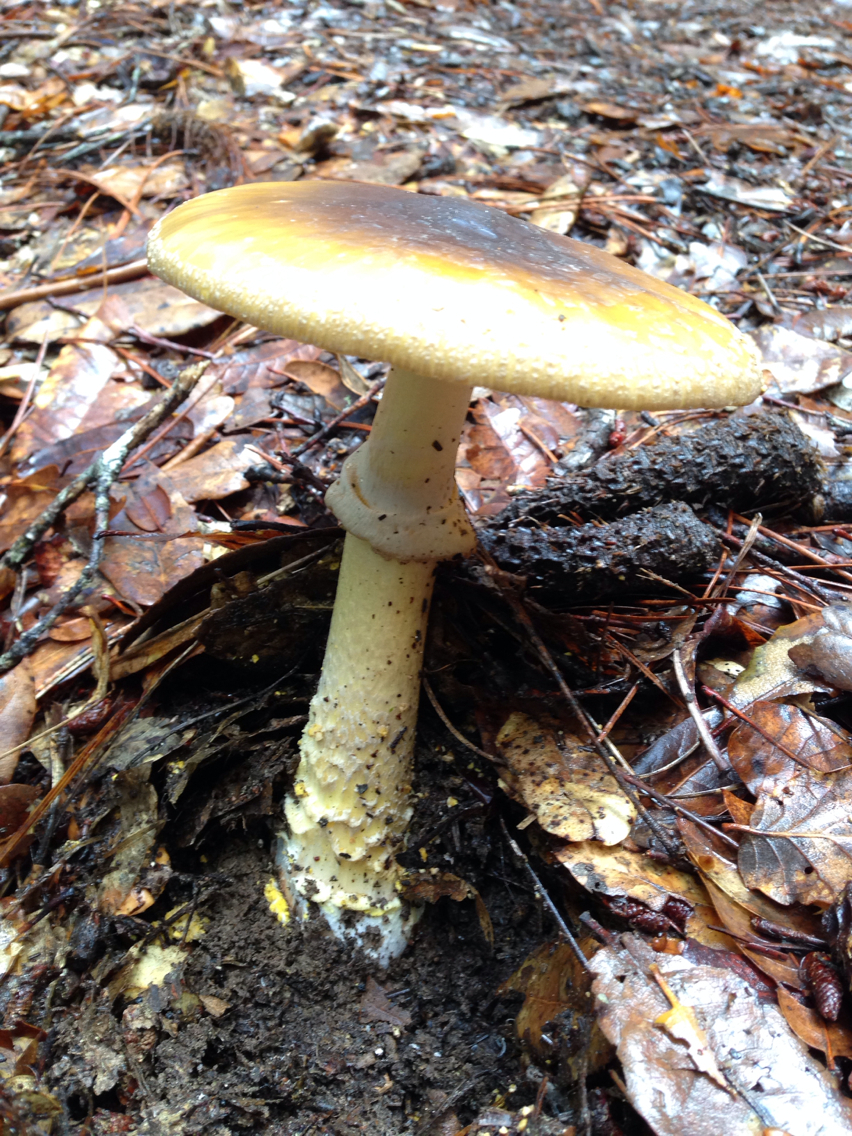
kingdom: Fungi
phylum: Basidiomycota
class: Agaricomycetes
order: Agaricales
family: Amanitaceae
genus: Amanita
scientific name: Amanita augusta
